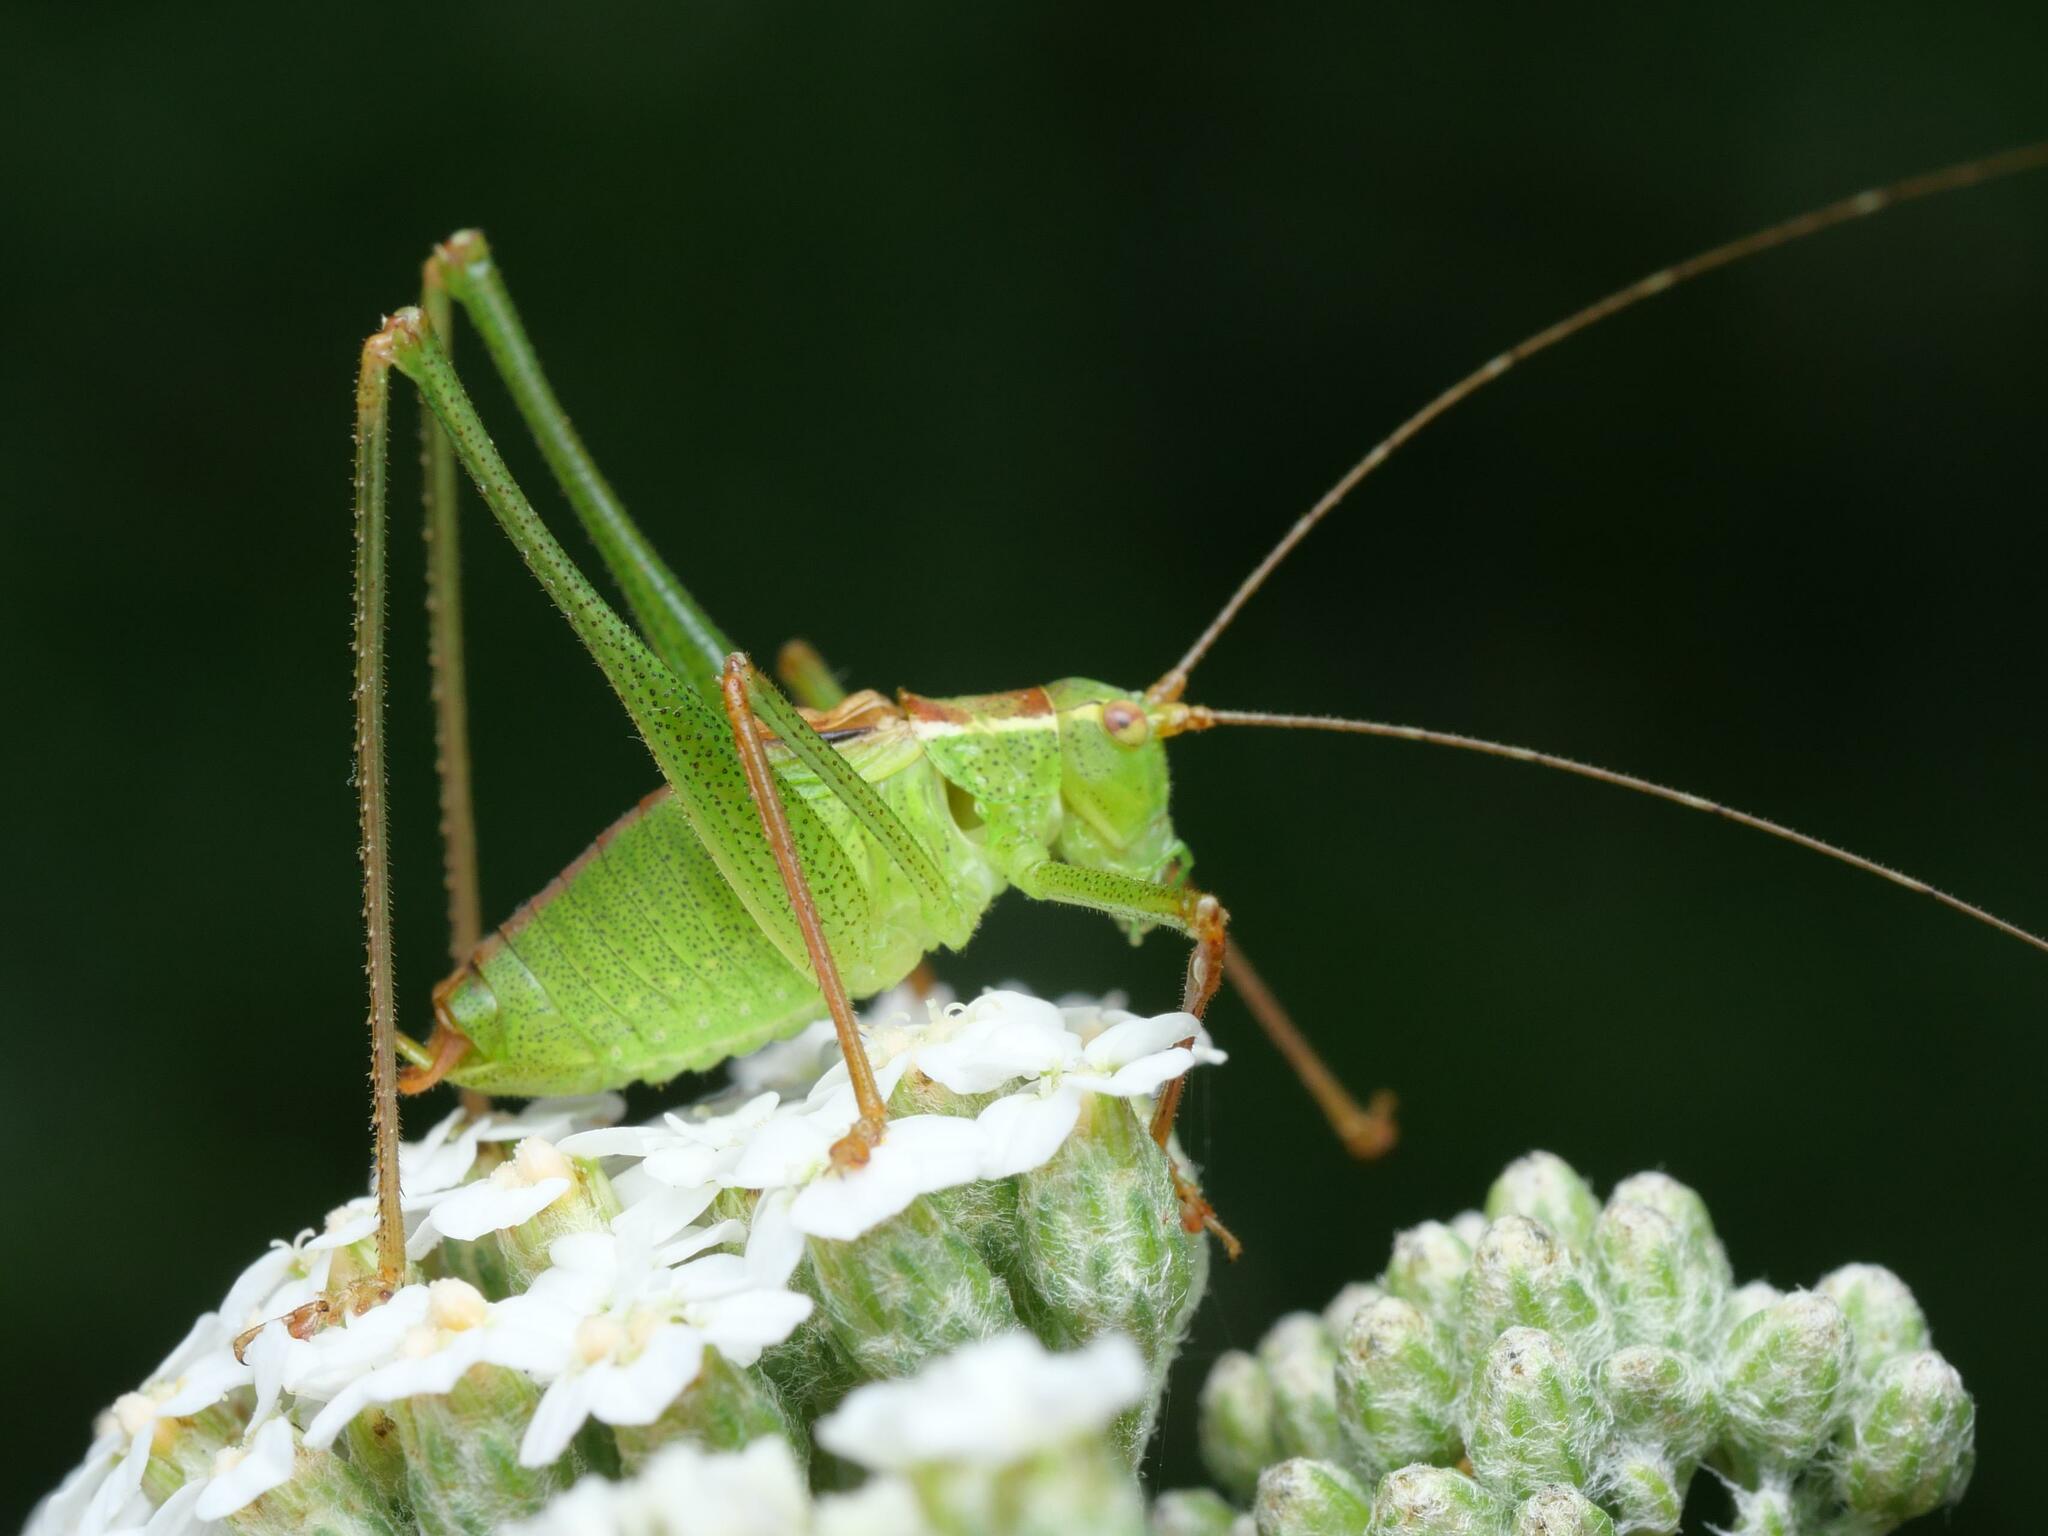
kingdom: Animalia
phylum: Arthropoda
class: Insecta
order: Orthoptera
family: Tettigoniidae
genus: Leptophyes
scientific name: Leptophyes punctatissima
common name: Speckled bush-cricket
